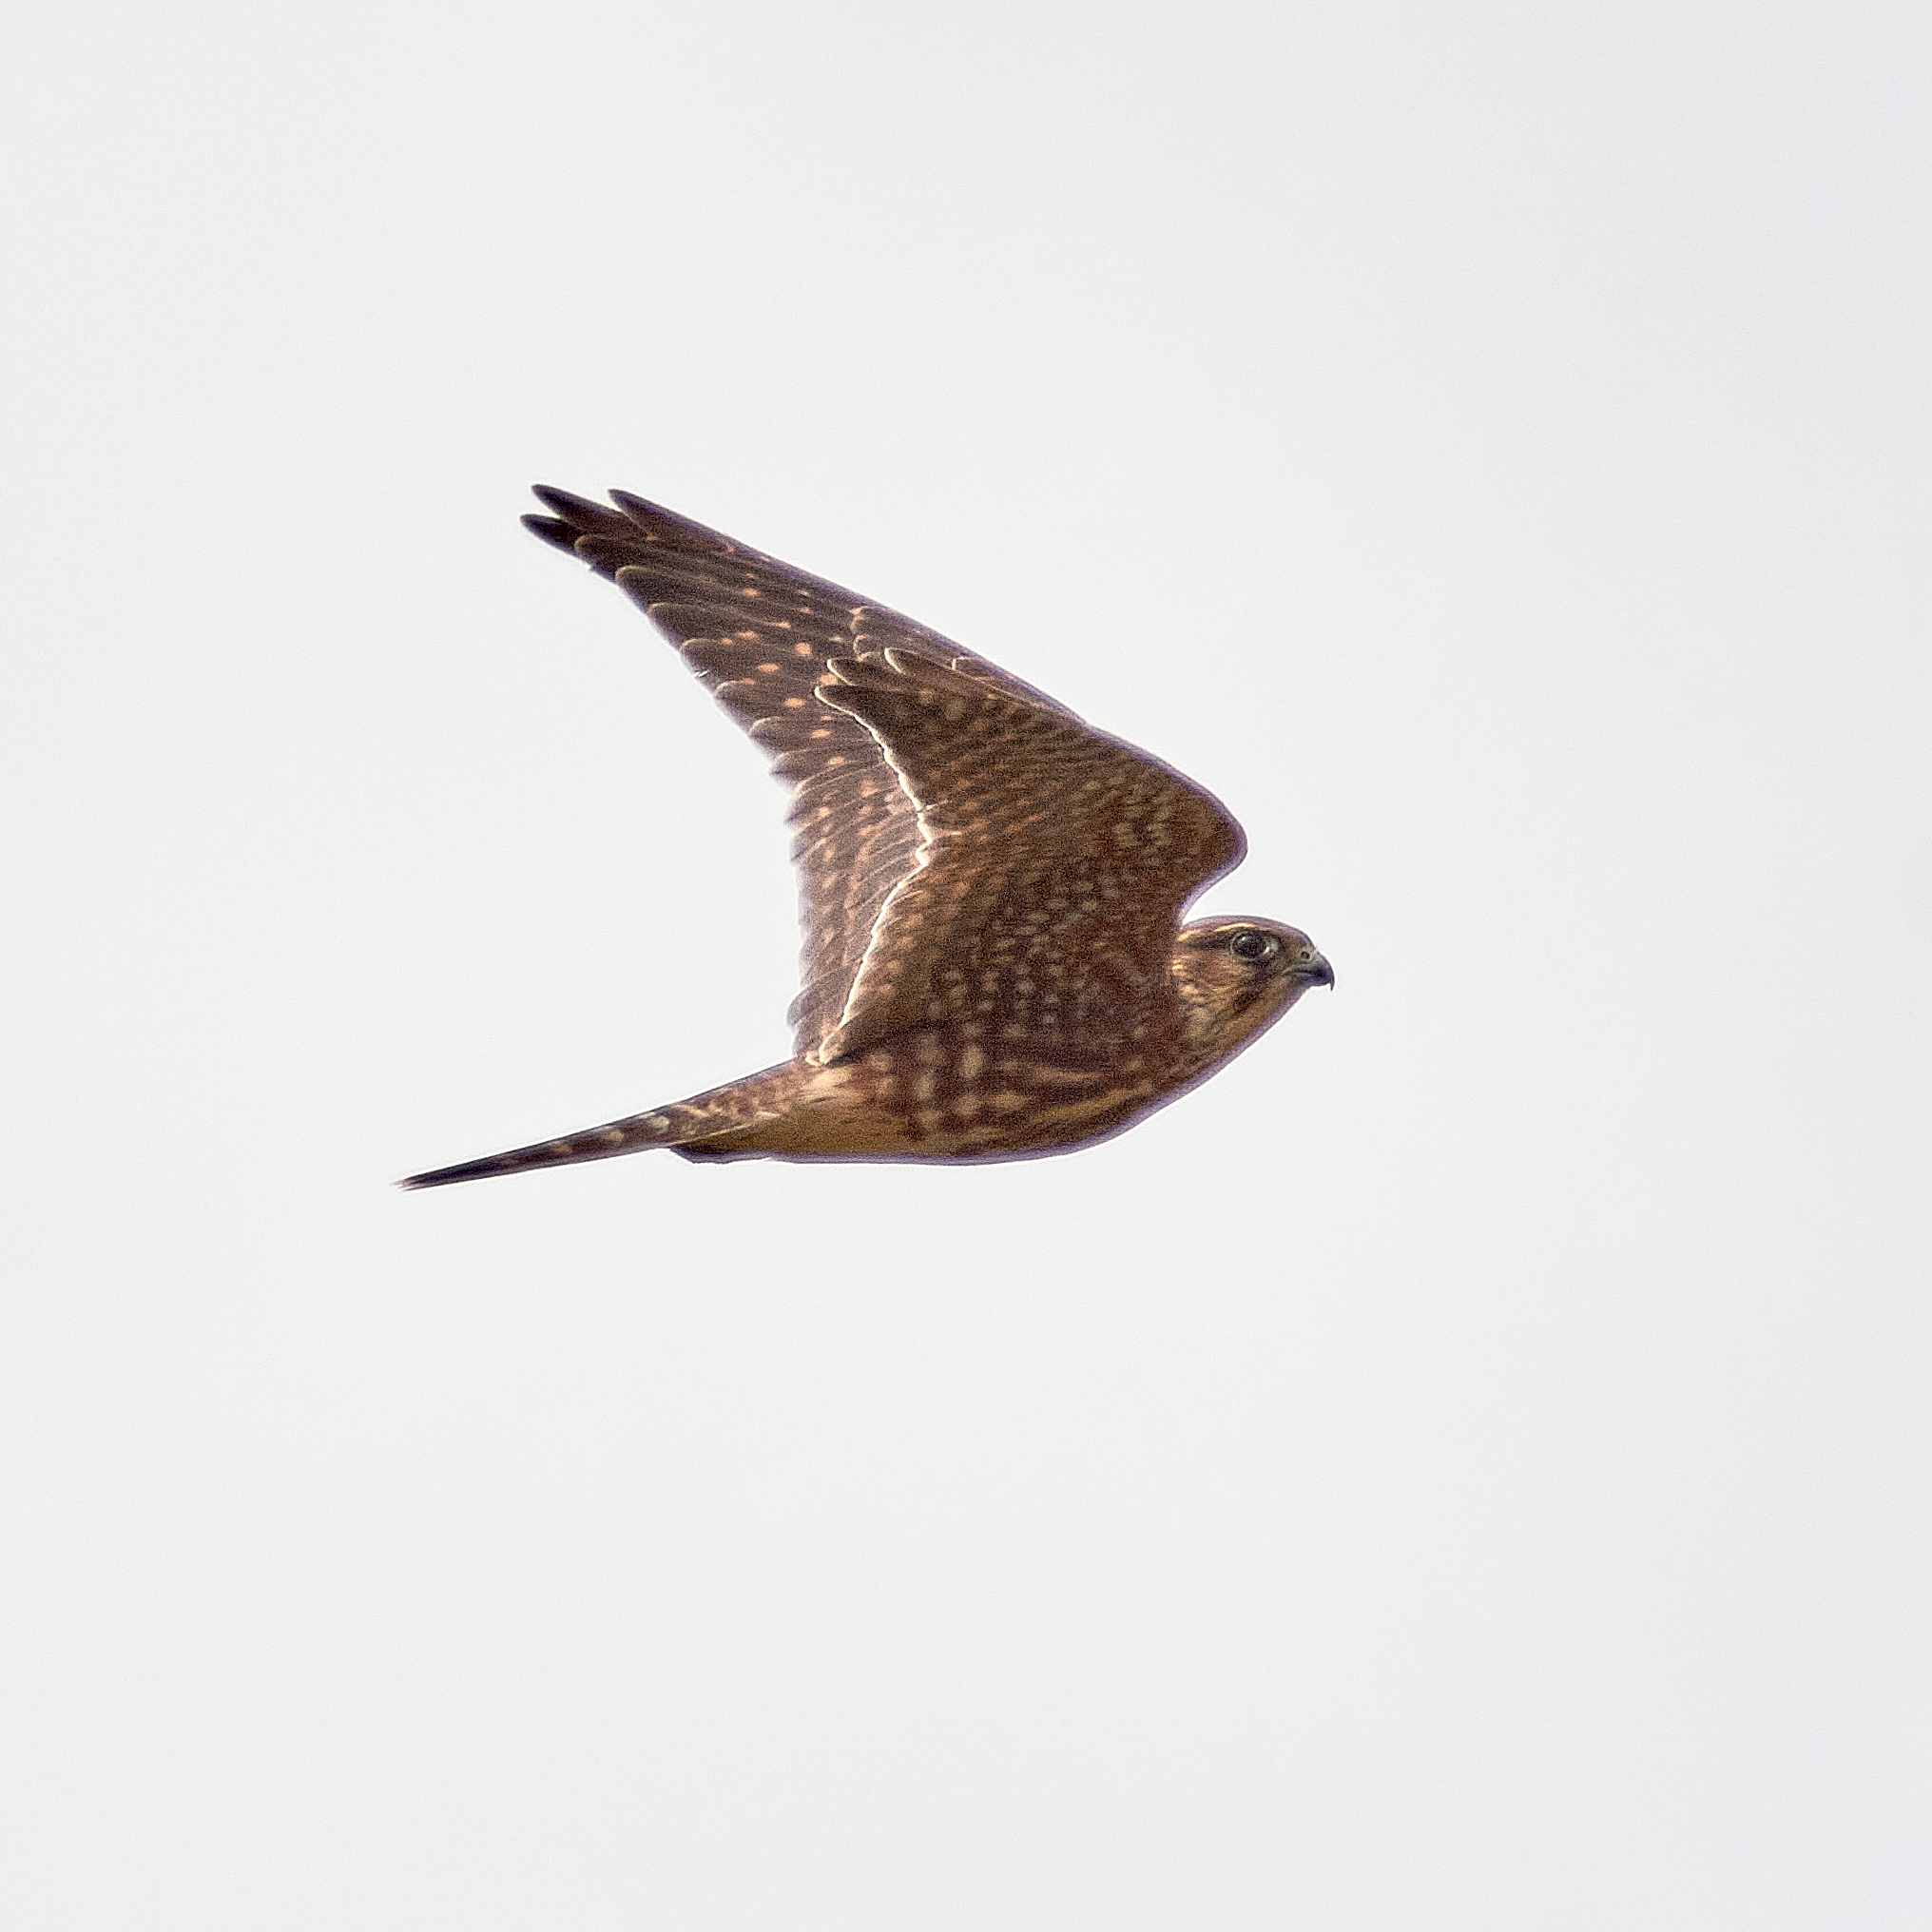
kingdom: Animalia
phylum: Chordata
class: Aves
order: Falconiformes
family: Falconidae
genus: Falco
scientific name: Falco columbarius
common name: Merlin
